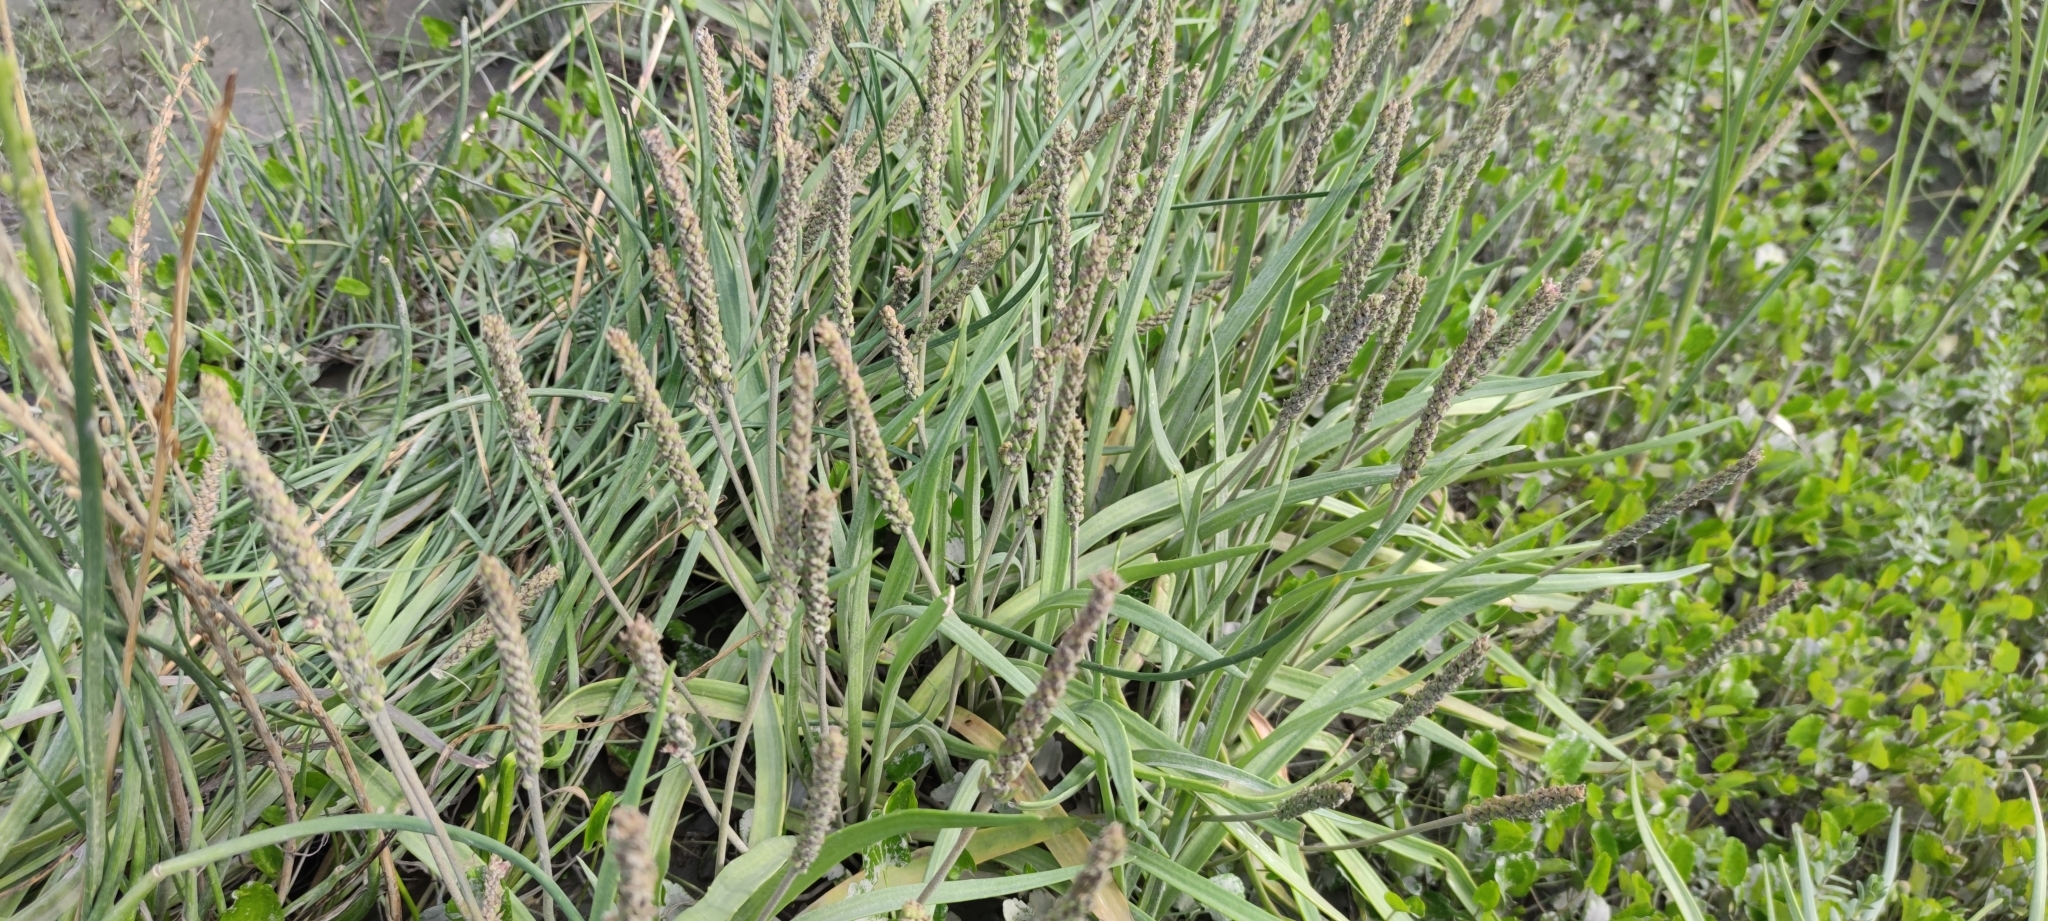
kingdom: Plantae
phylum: Tracheophyta
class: Magnoliopsida
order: Lamiales
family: Plantaginaceae
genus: Plantago
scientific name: Plantago maritima
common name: Sea plantain
